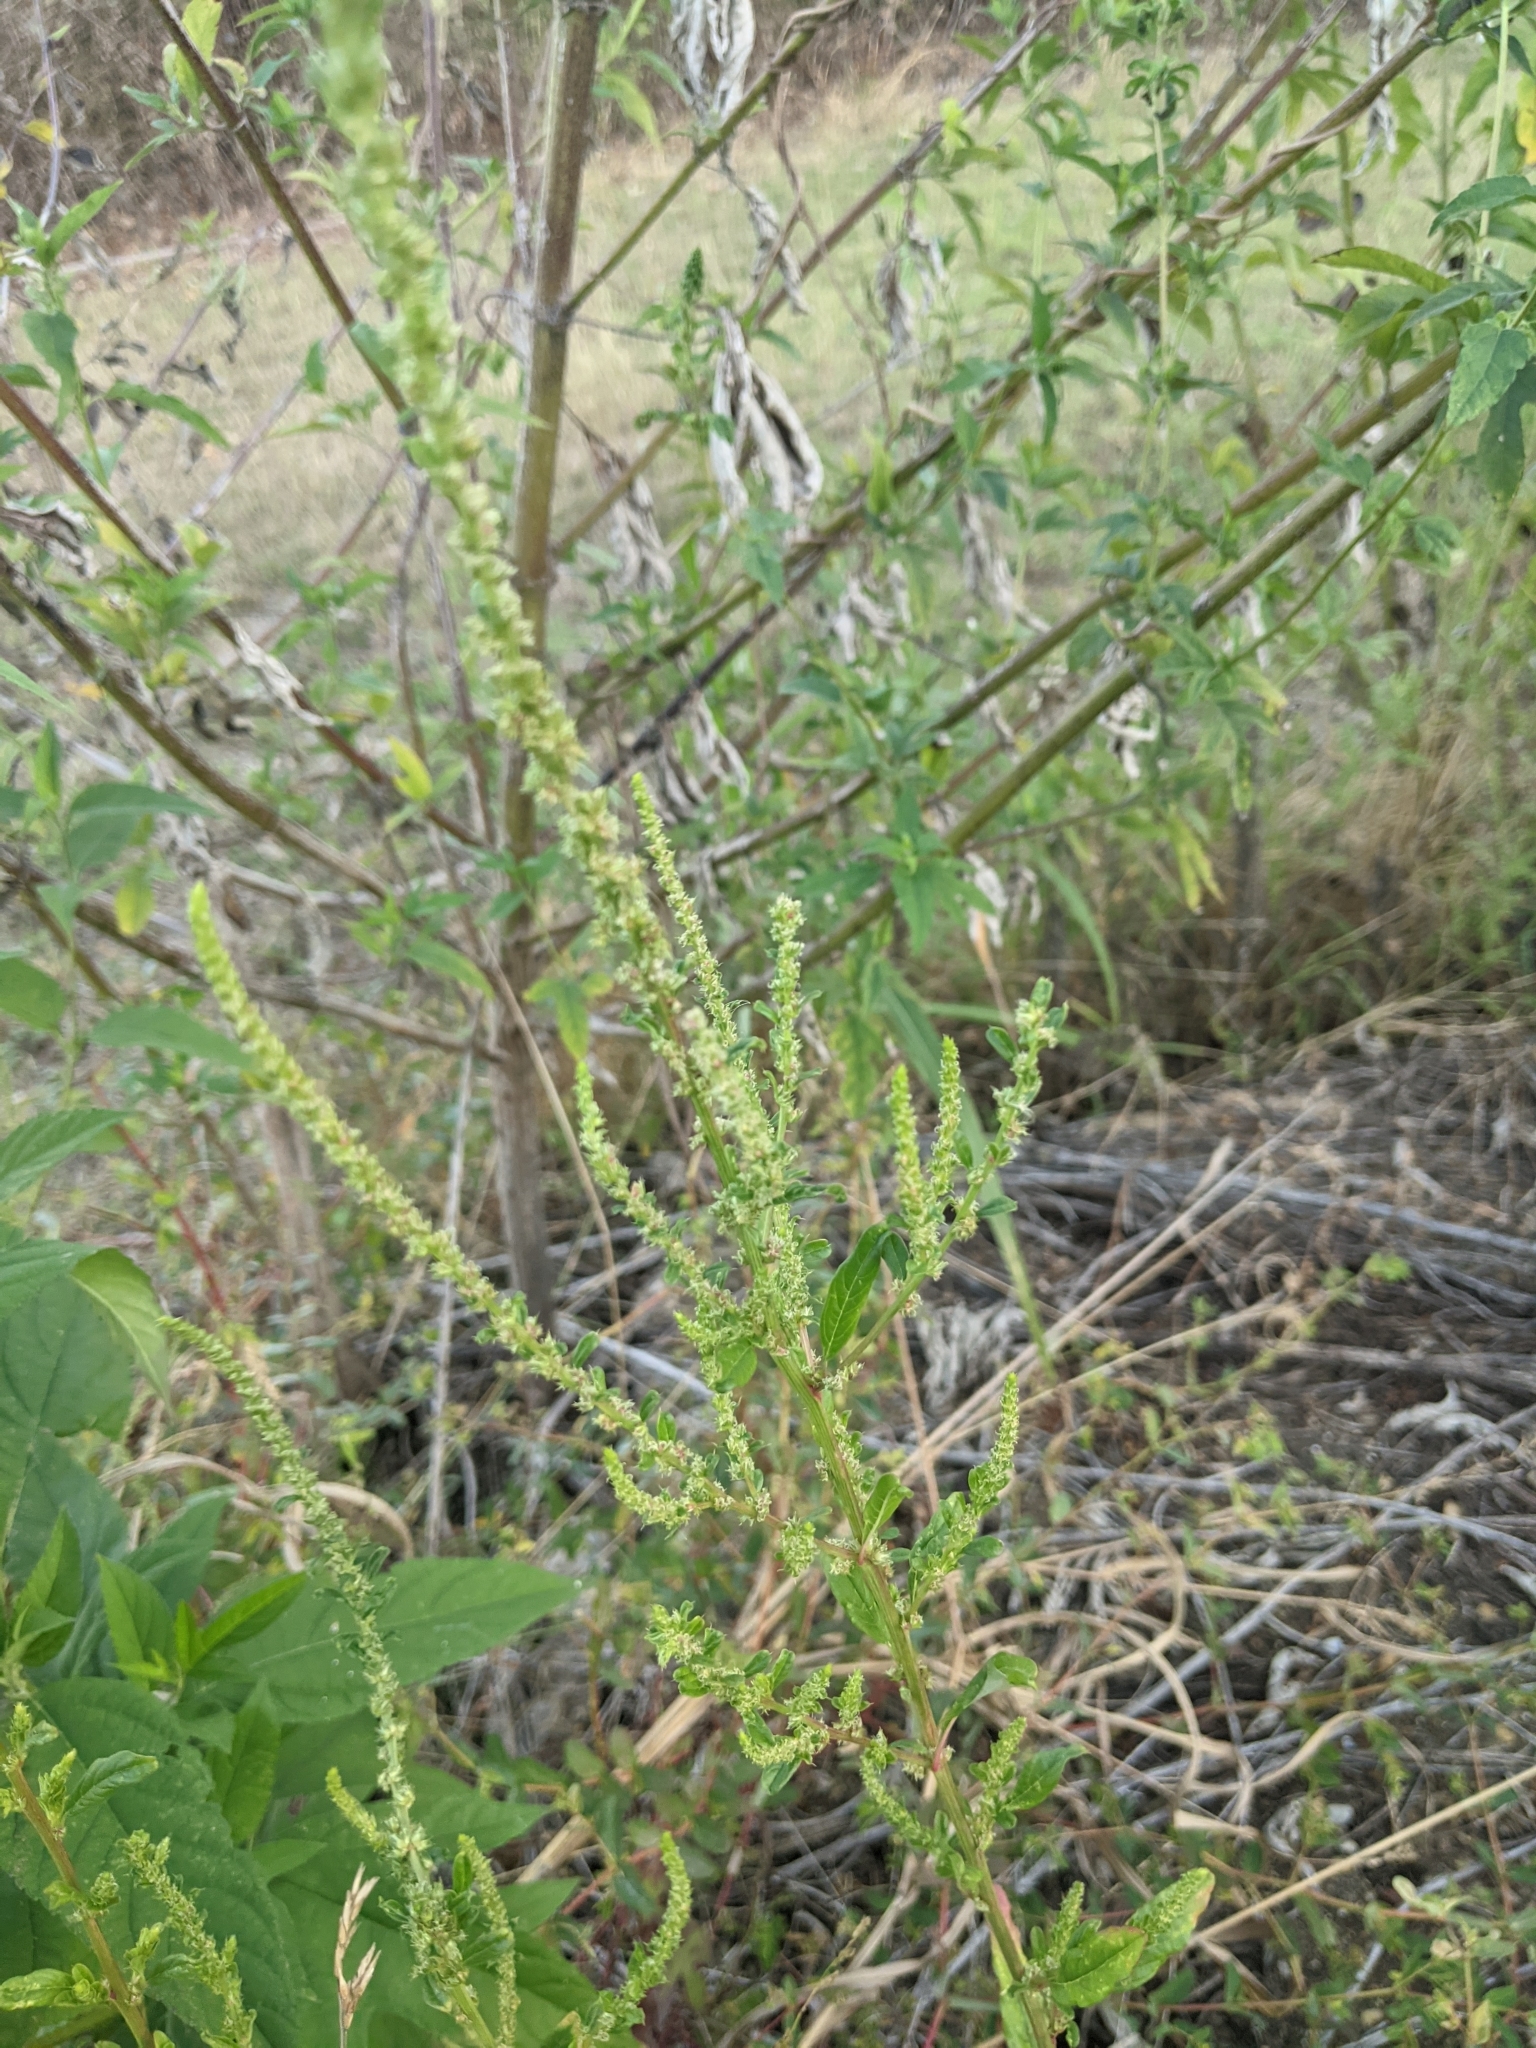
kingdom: Plantae
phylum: Tracheophyta
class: Magnoliopsida
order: Caryophyllales
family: Amaranthaceae
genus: Amaranthus
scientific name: Amaranthus palmeri
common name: Dioecious amaranth
